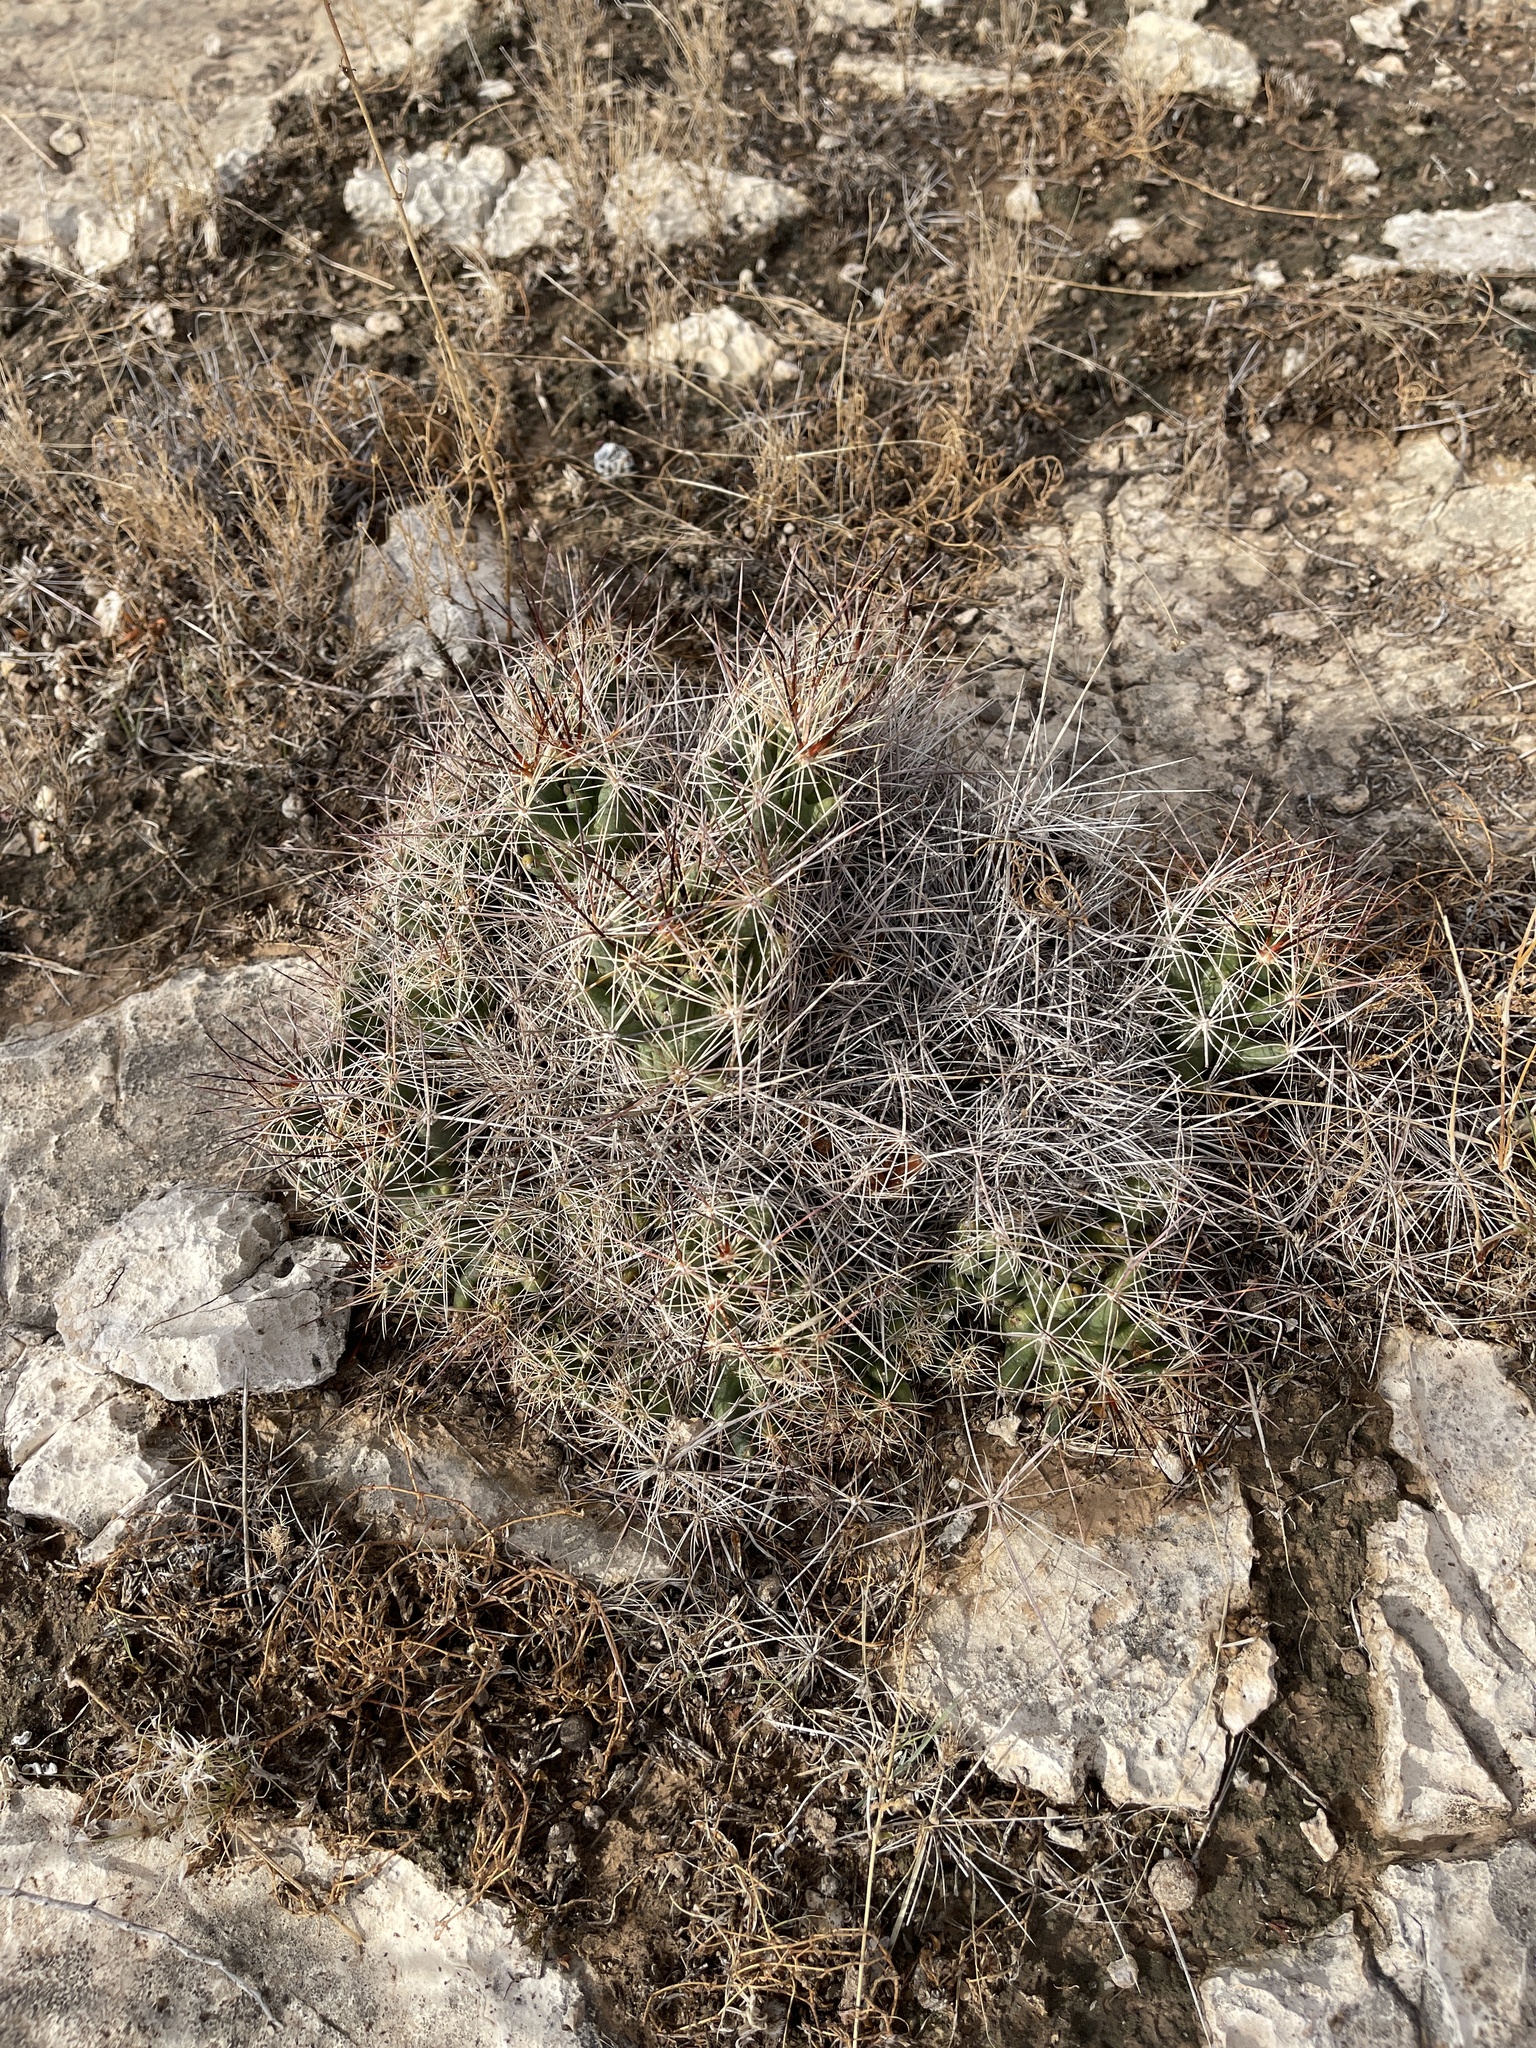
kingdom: Plantae
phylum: Tracheophyta
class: Magnoliopsida
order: Caryophyllales
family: Cactaceae
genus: Coryphantha
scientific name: Coryphantha macromeris
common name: Nipple beehive cactus
